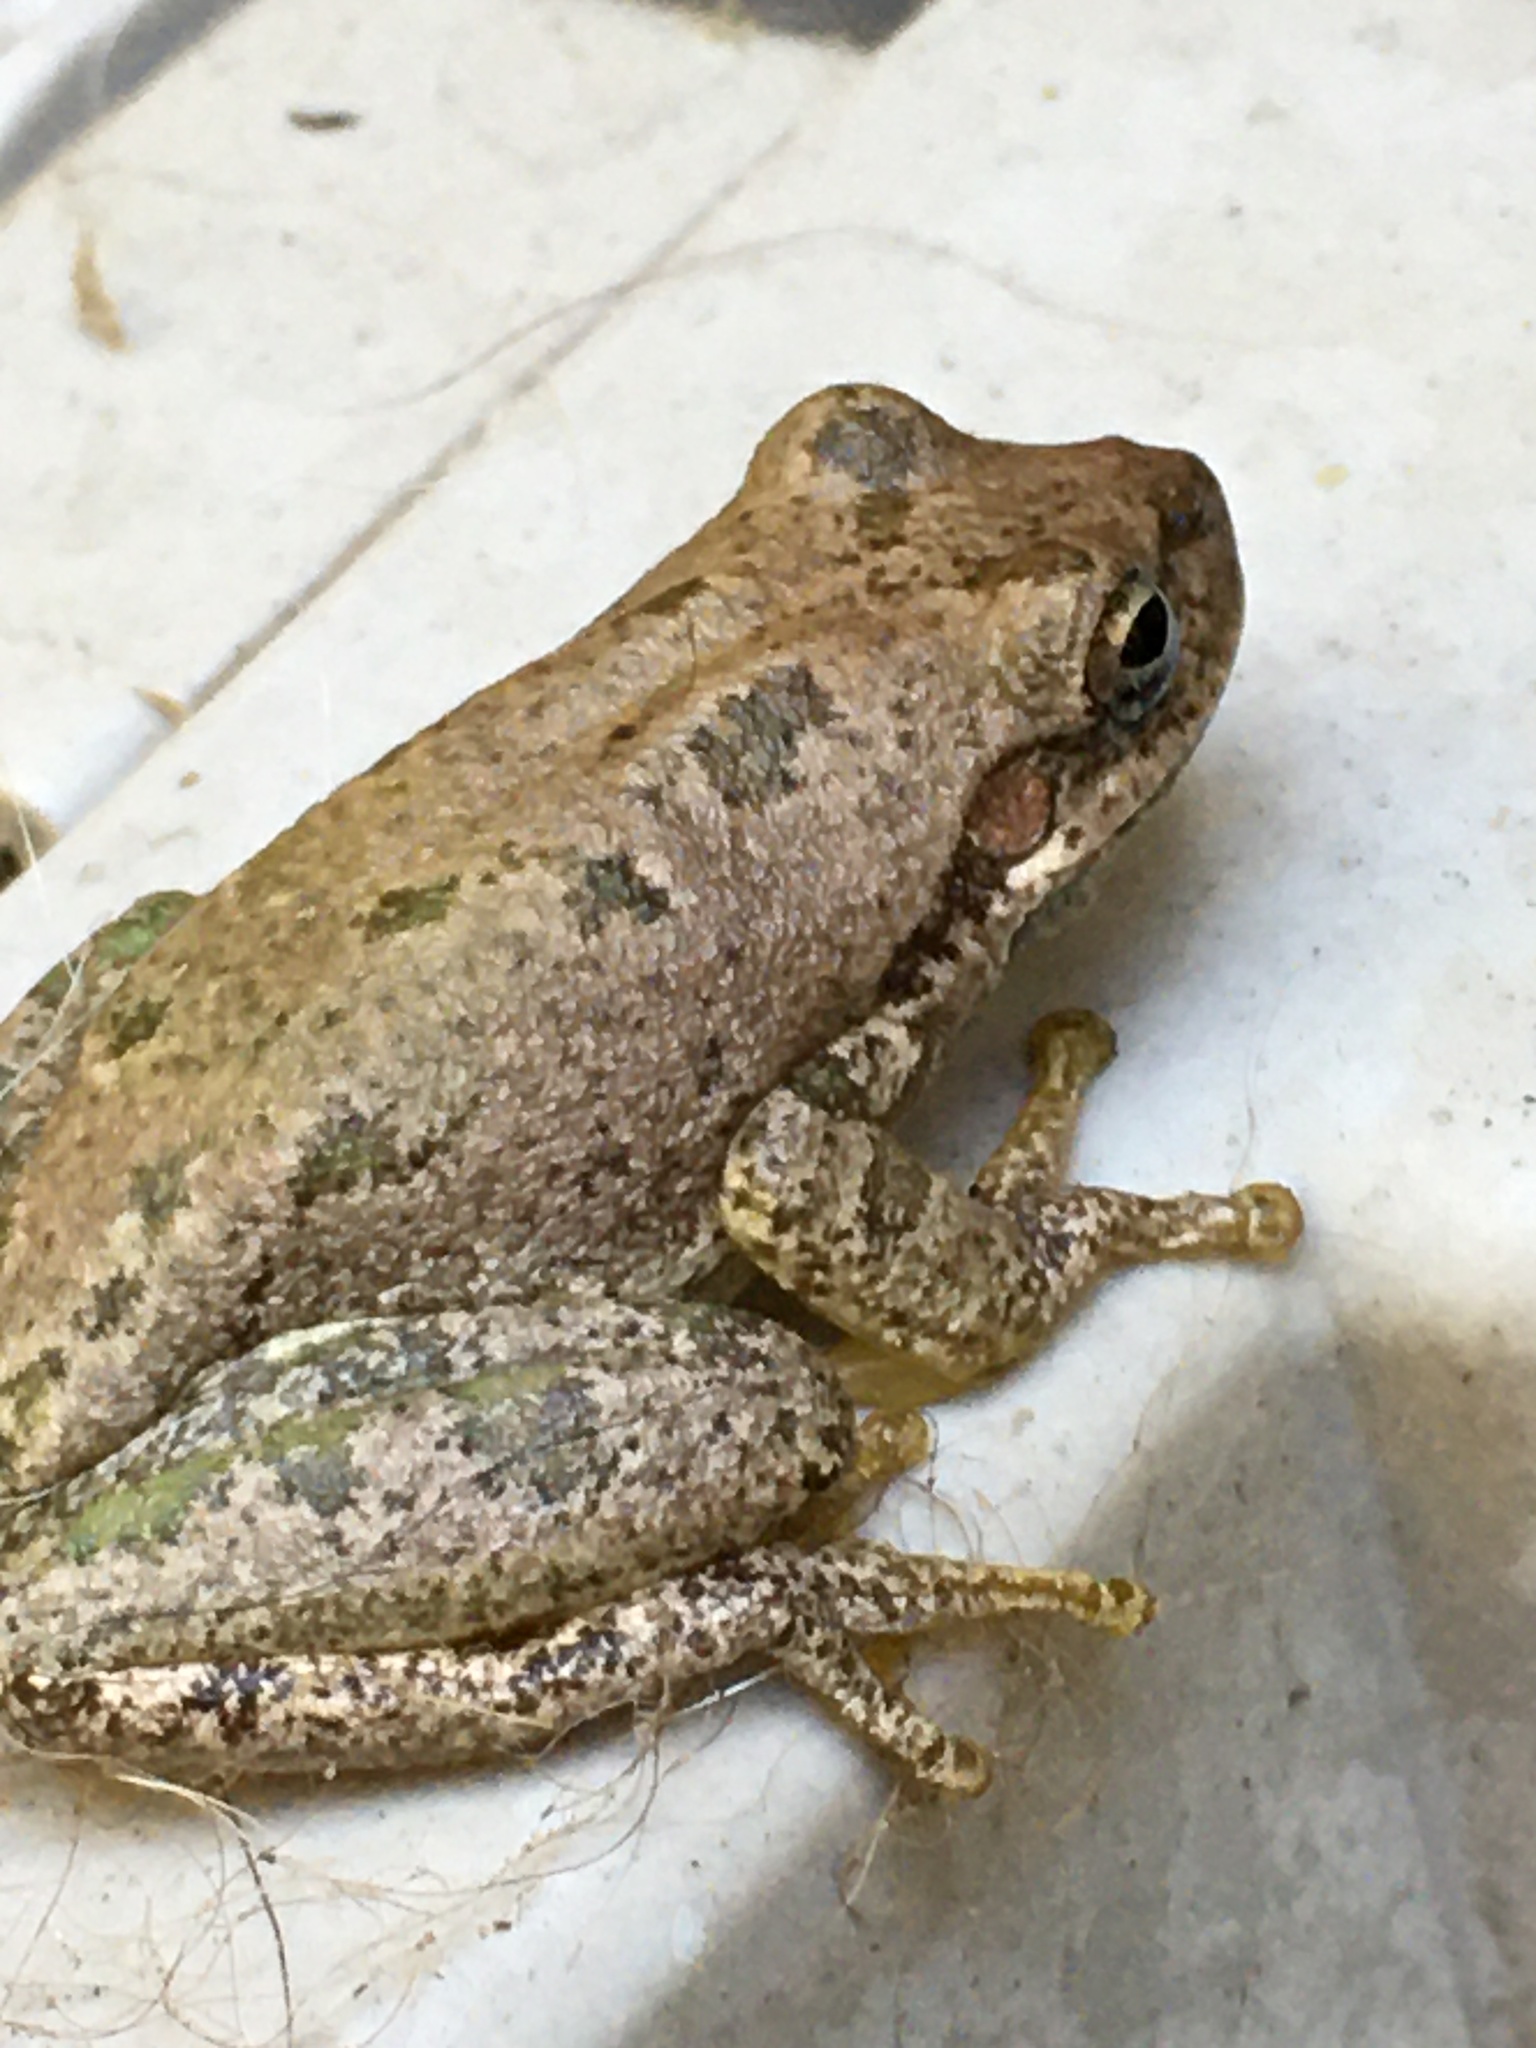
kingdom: Animalia
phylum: Chordata
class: Amphibia
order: Anura
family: Hylidae
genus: Dryophytes
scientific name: Dryophytes squirellus
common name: Squirrel treefrog
